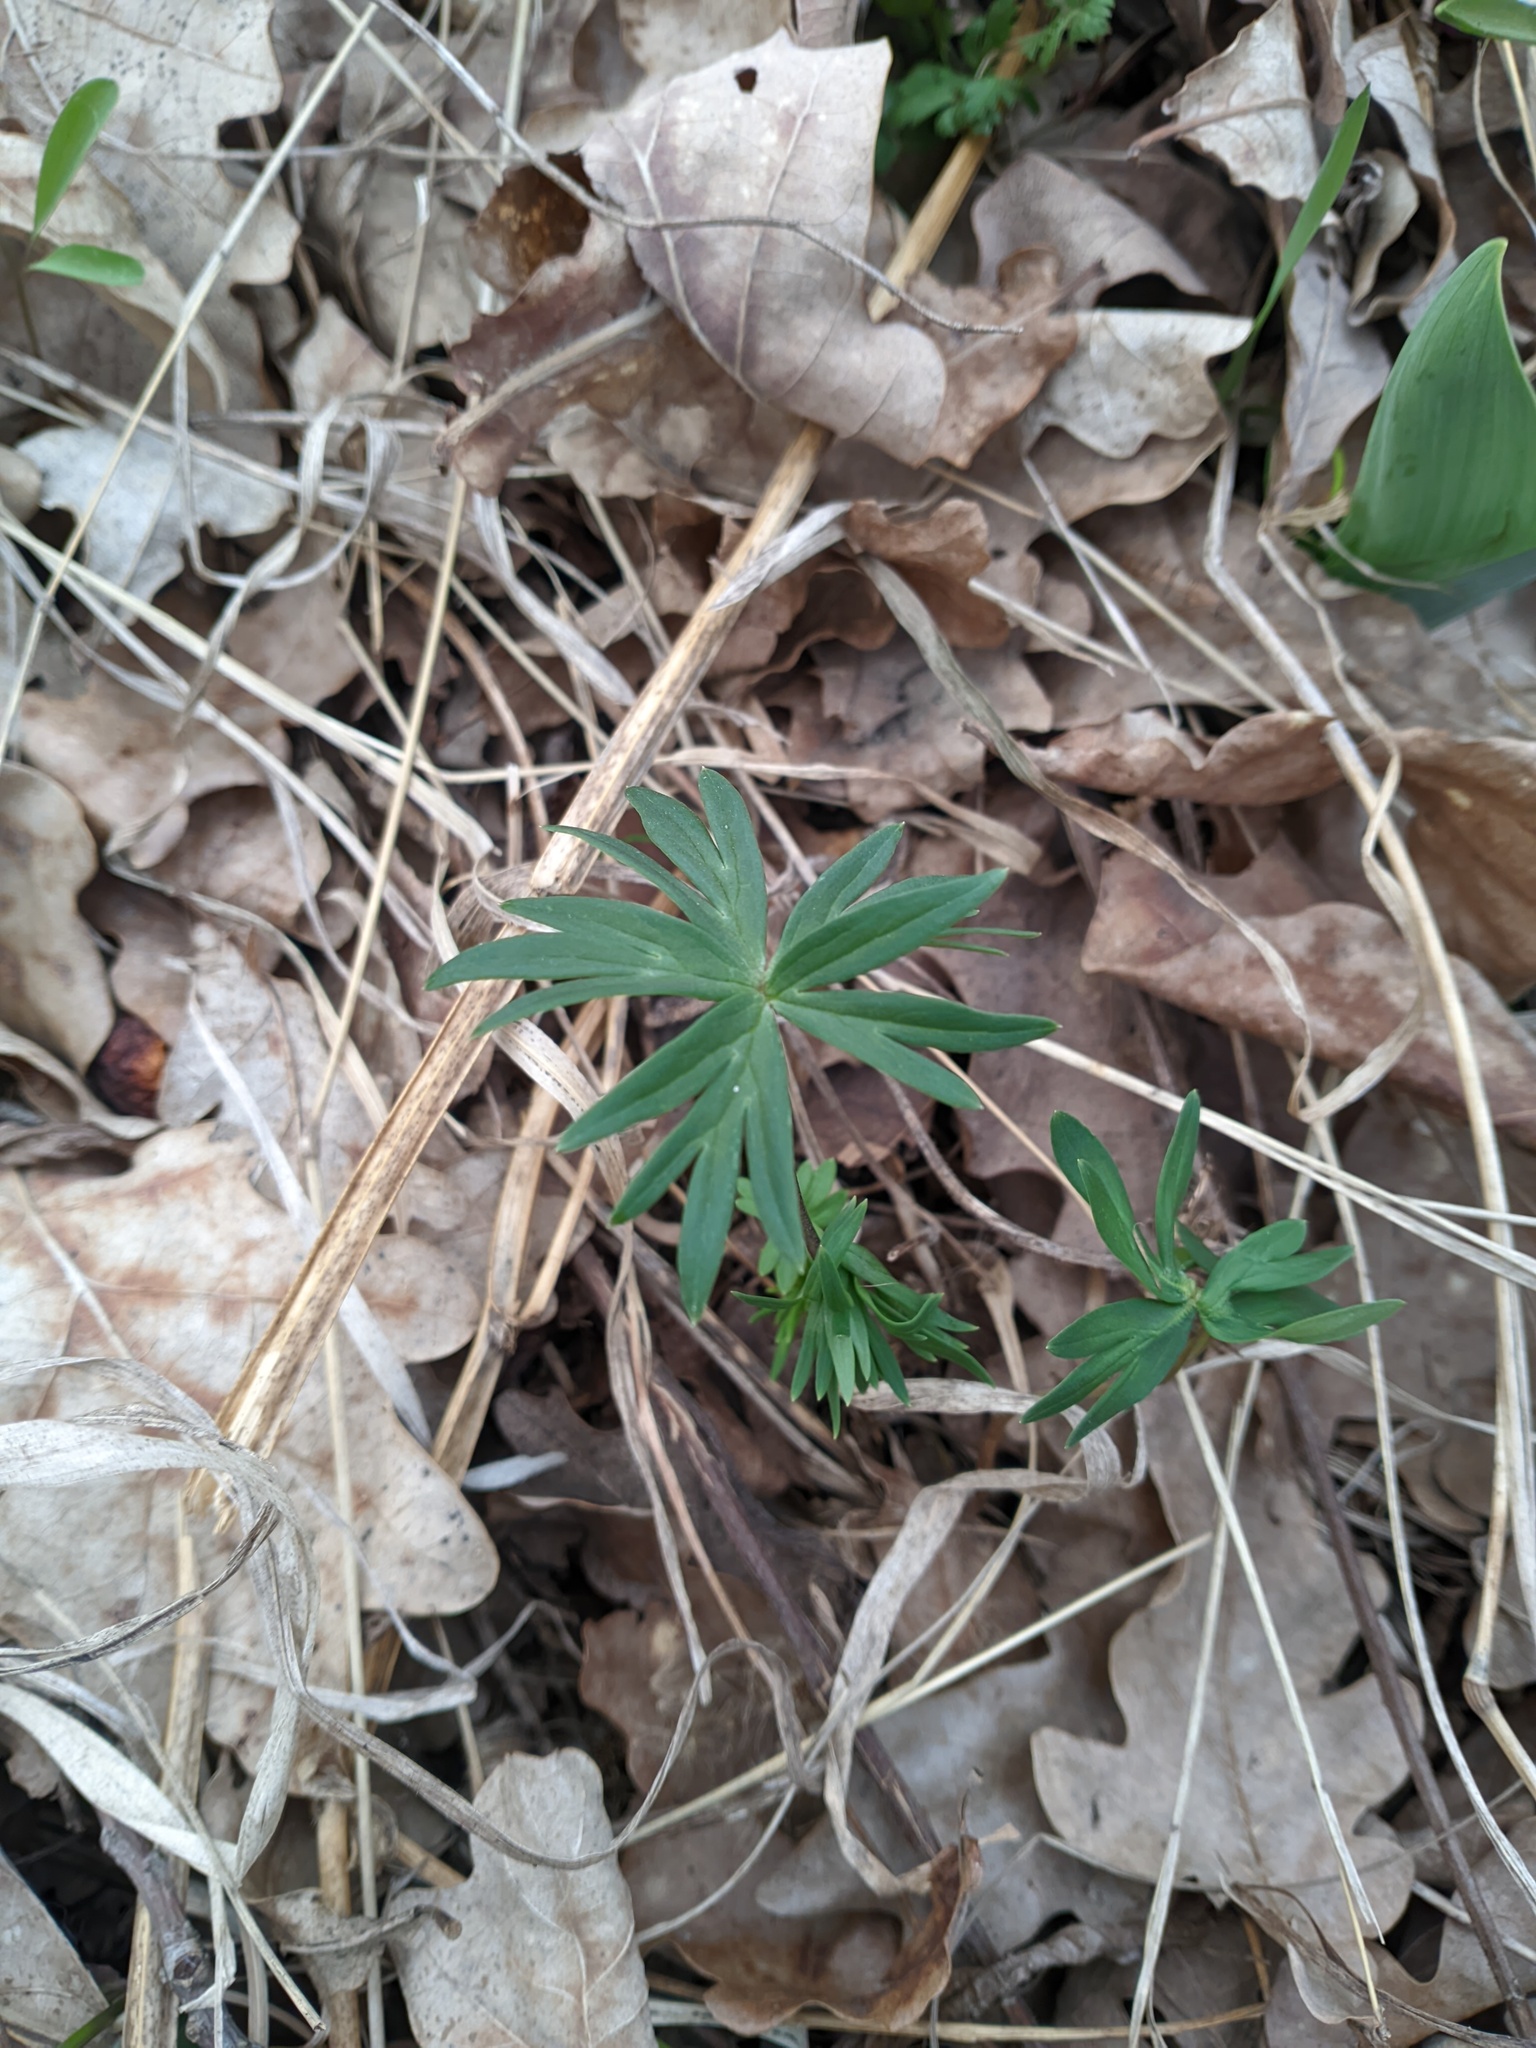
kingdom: Plantae
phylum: Tracheophyta
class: Magnoliopsida
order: Geraniales
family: Geraniaceae
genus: Geranium
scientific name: Geranium sanguineum
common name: Bloody crane's-bill
